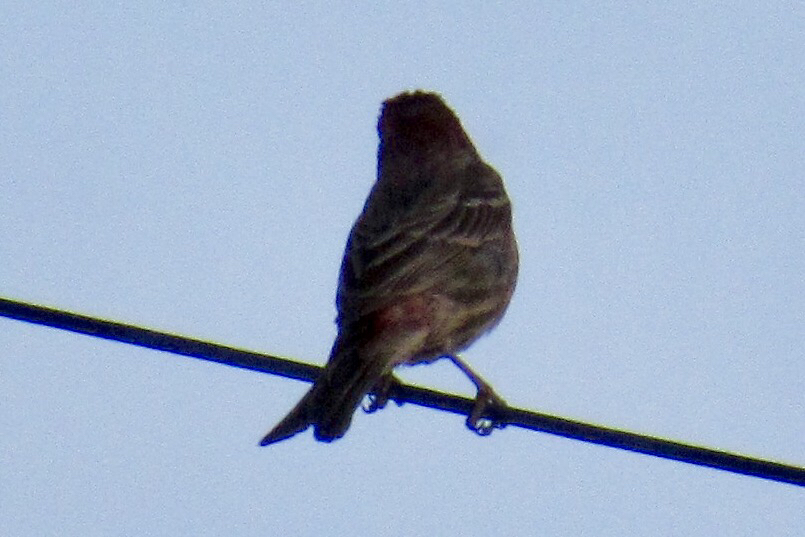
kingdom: Animalia
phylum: Chordata
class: Aves
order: Passeriformes
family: Fringillidae
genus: Haemorhous
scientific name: Haemorhous mexicanus
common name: House finch
